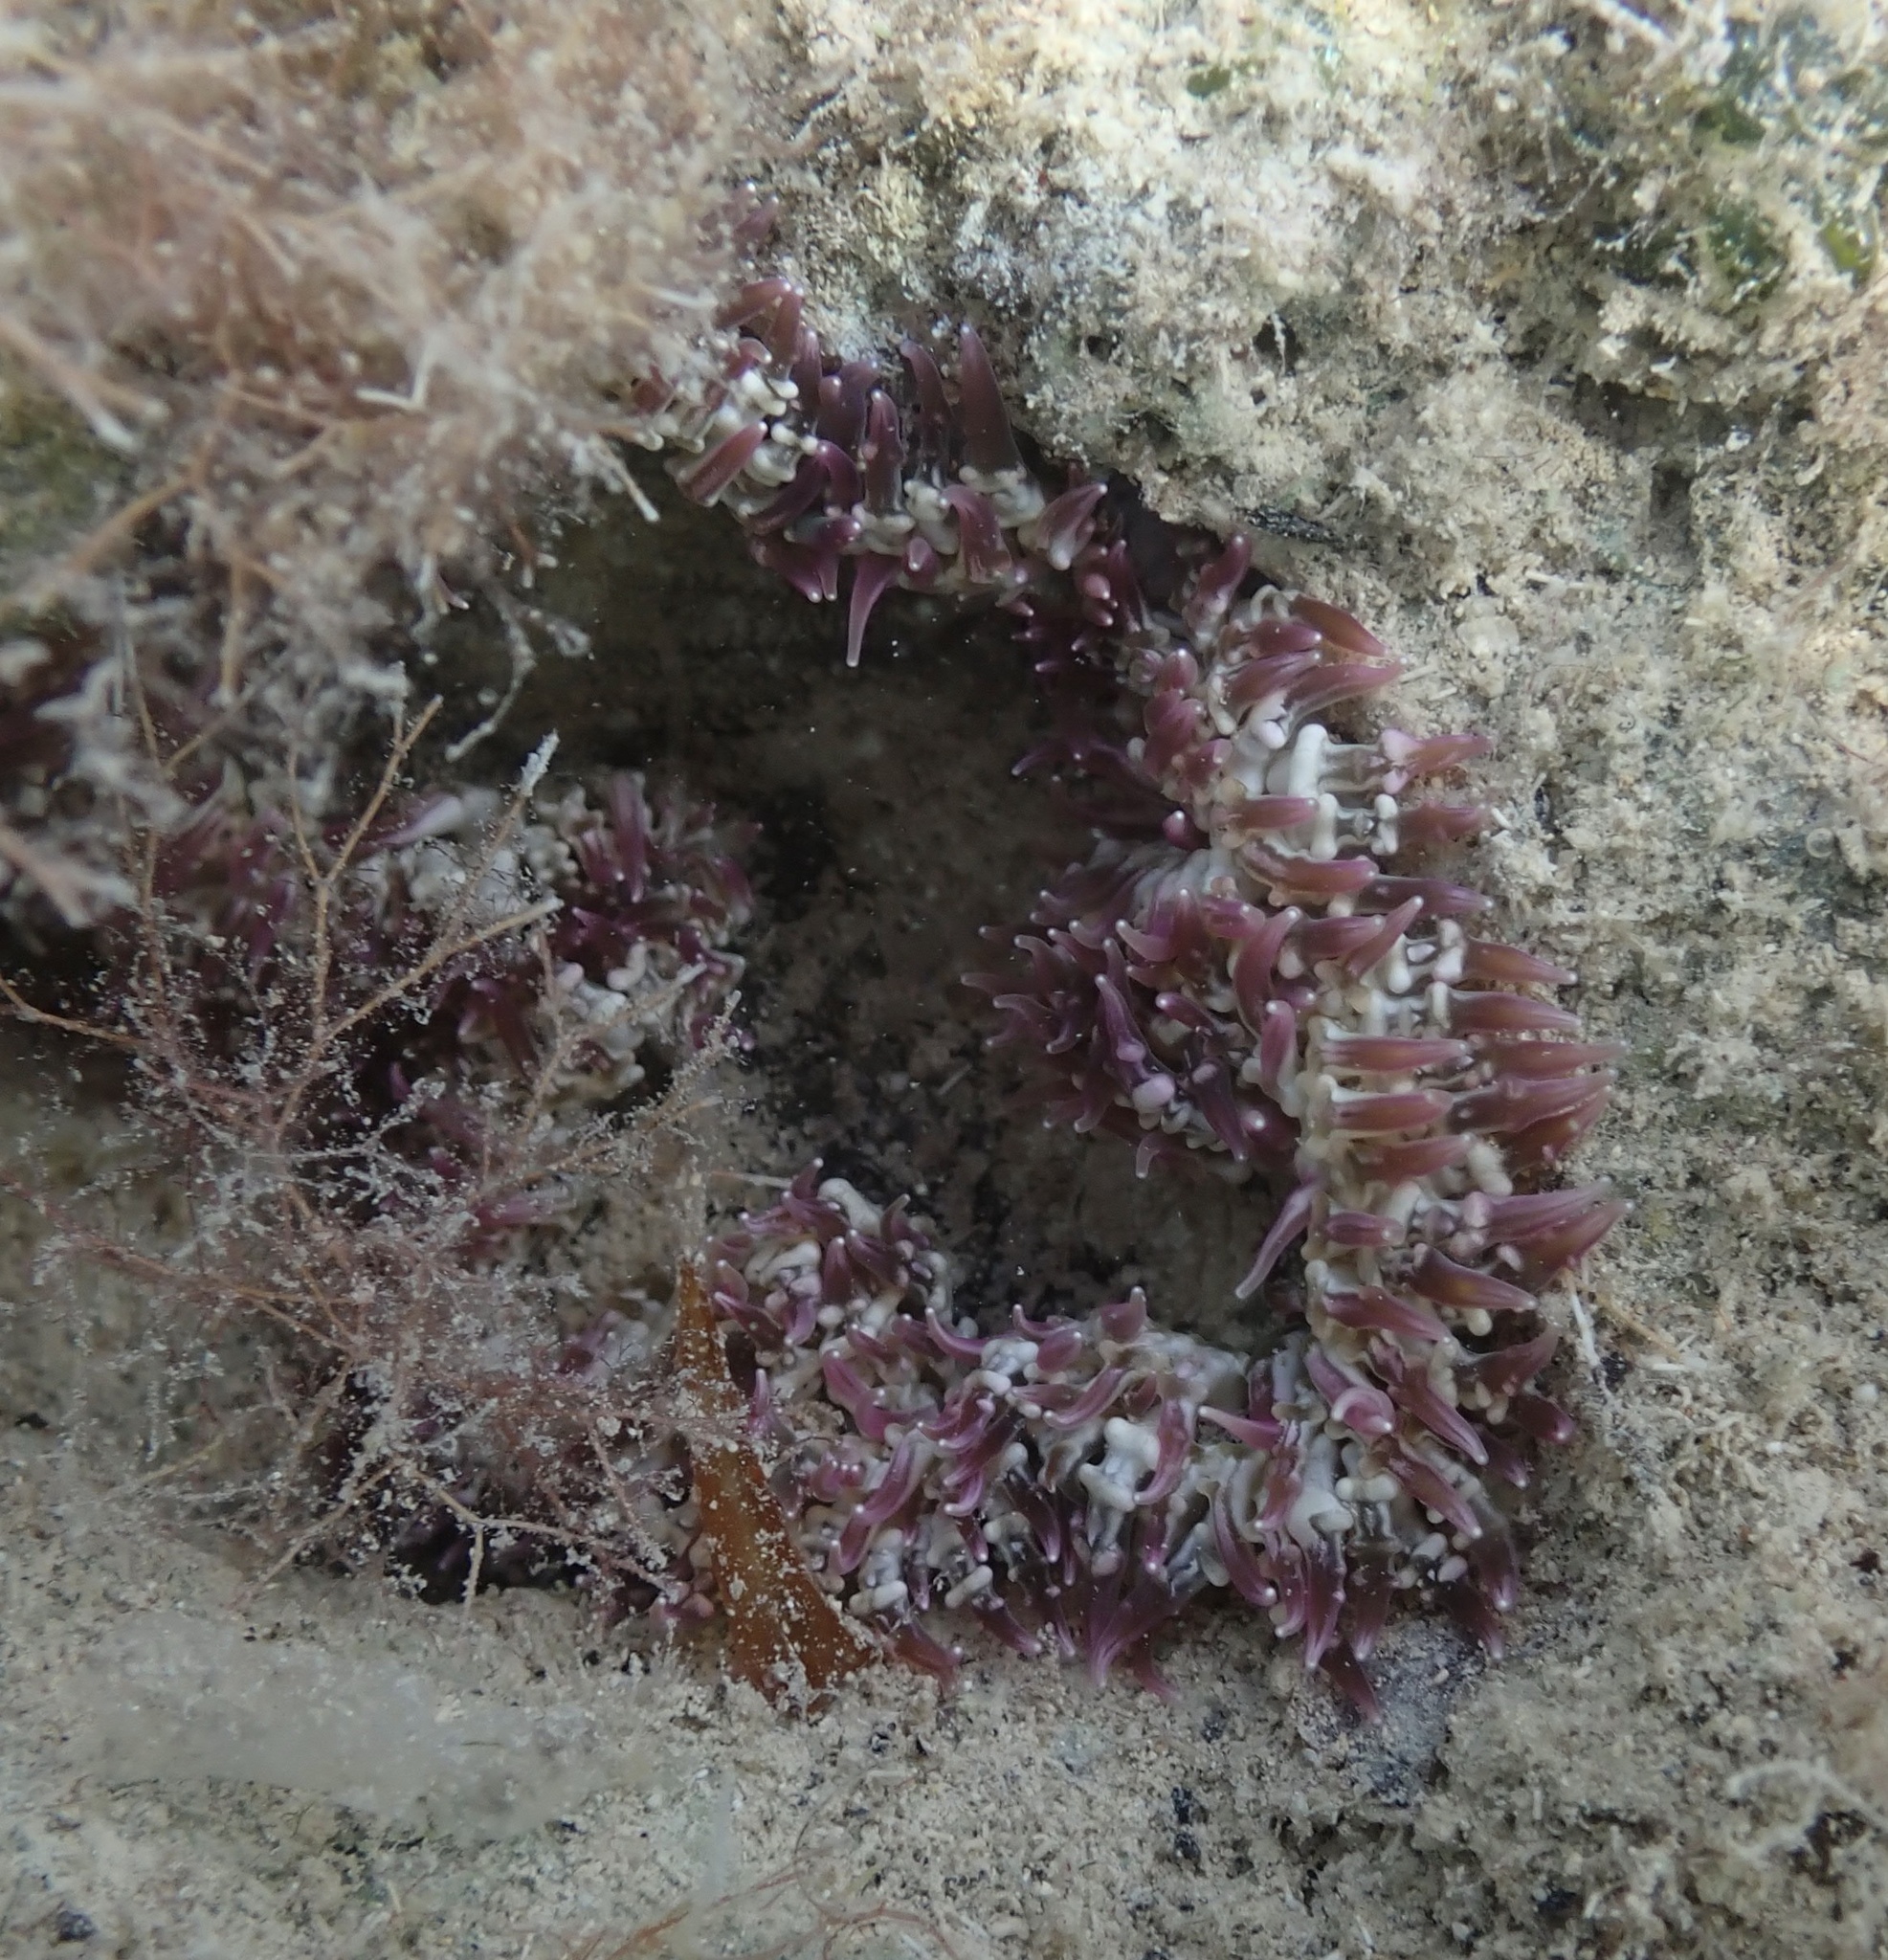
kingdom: Animalia
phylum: Cnidaria
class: Anthozoa
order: Actiniaria
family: Phymanthidae
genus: Phymanthus
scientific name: Phymanthus crucifer
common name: Red beaded anemone
